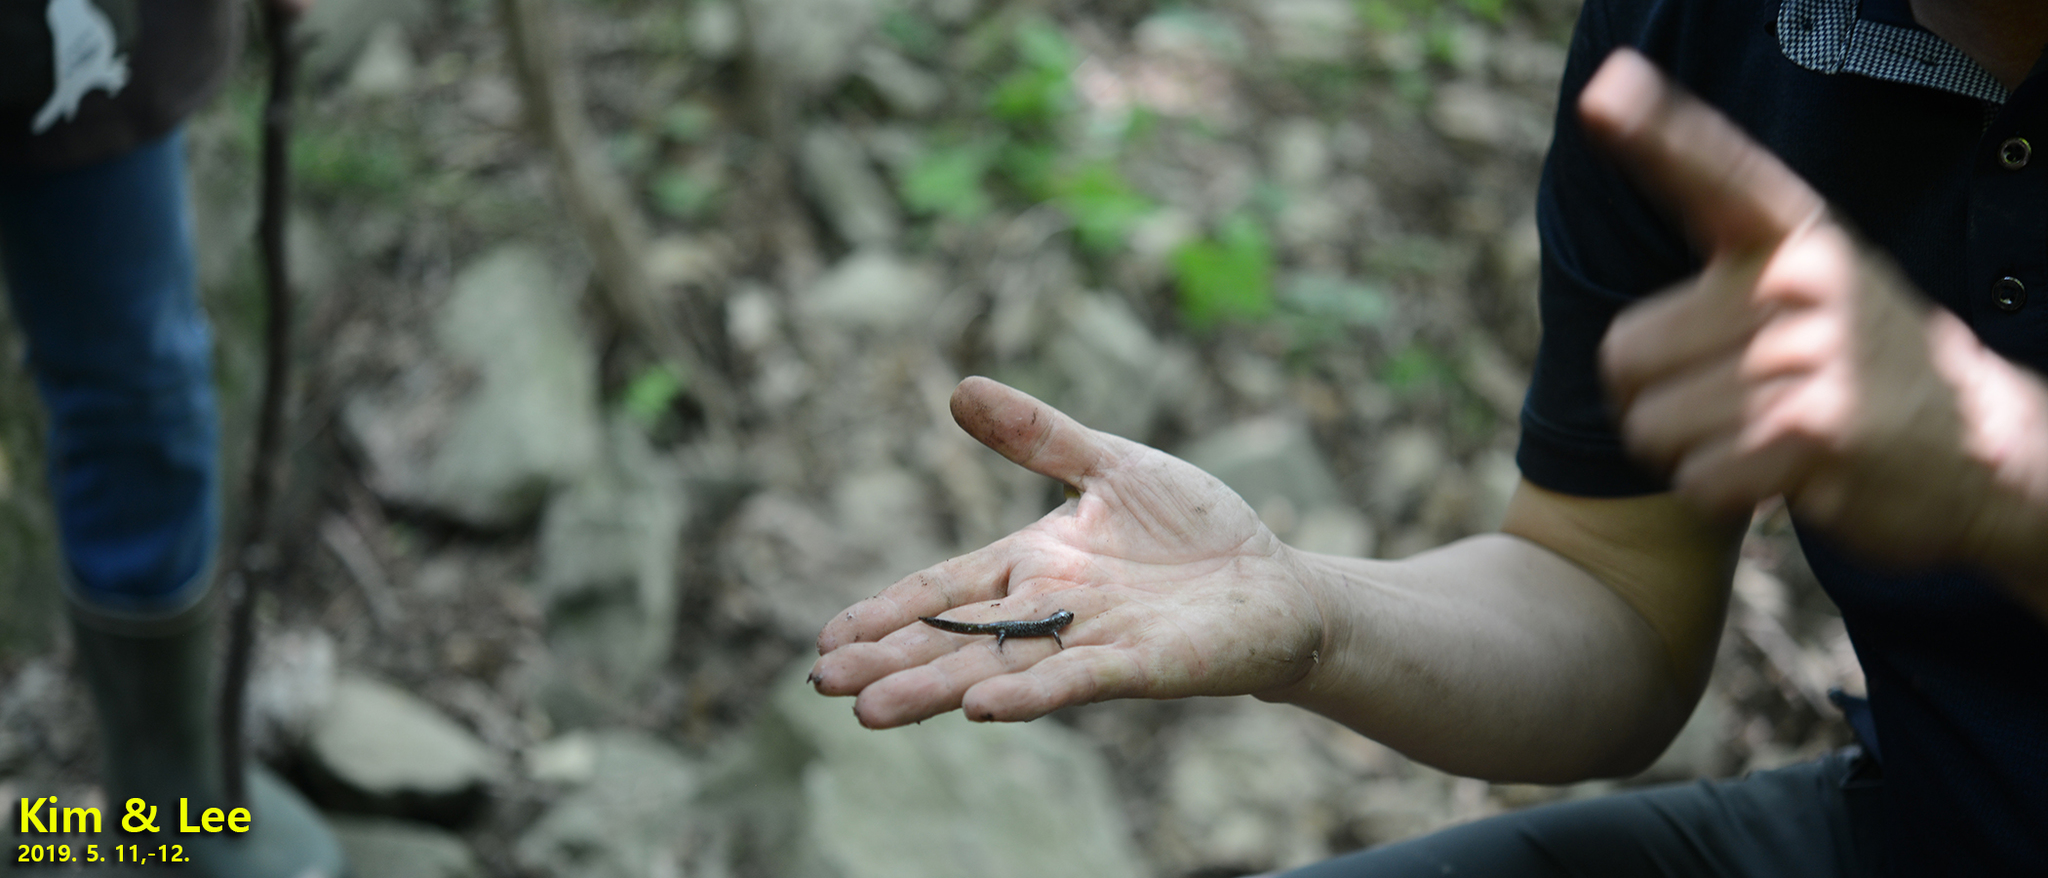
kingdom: Animalia
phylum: Chordata
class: Amphibia
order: Caudata
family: Hynobiidae
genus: Hynobius
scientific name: Hynobius leechii
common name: Gensan salamander
